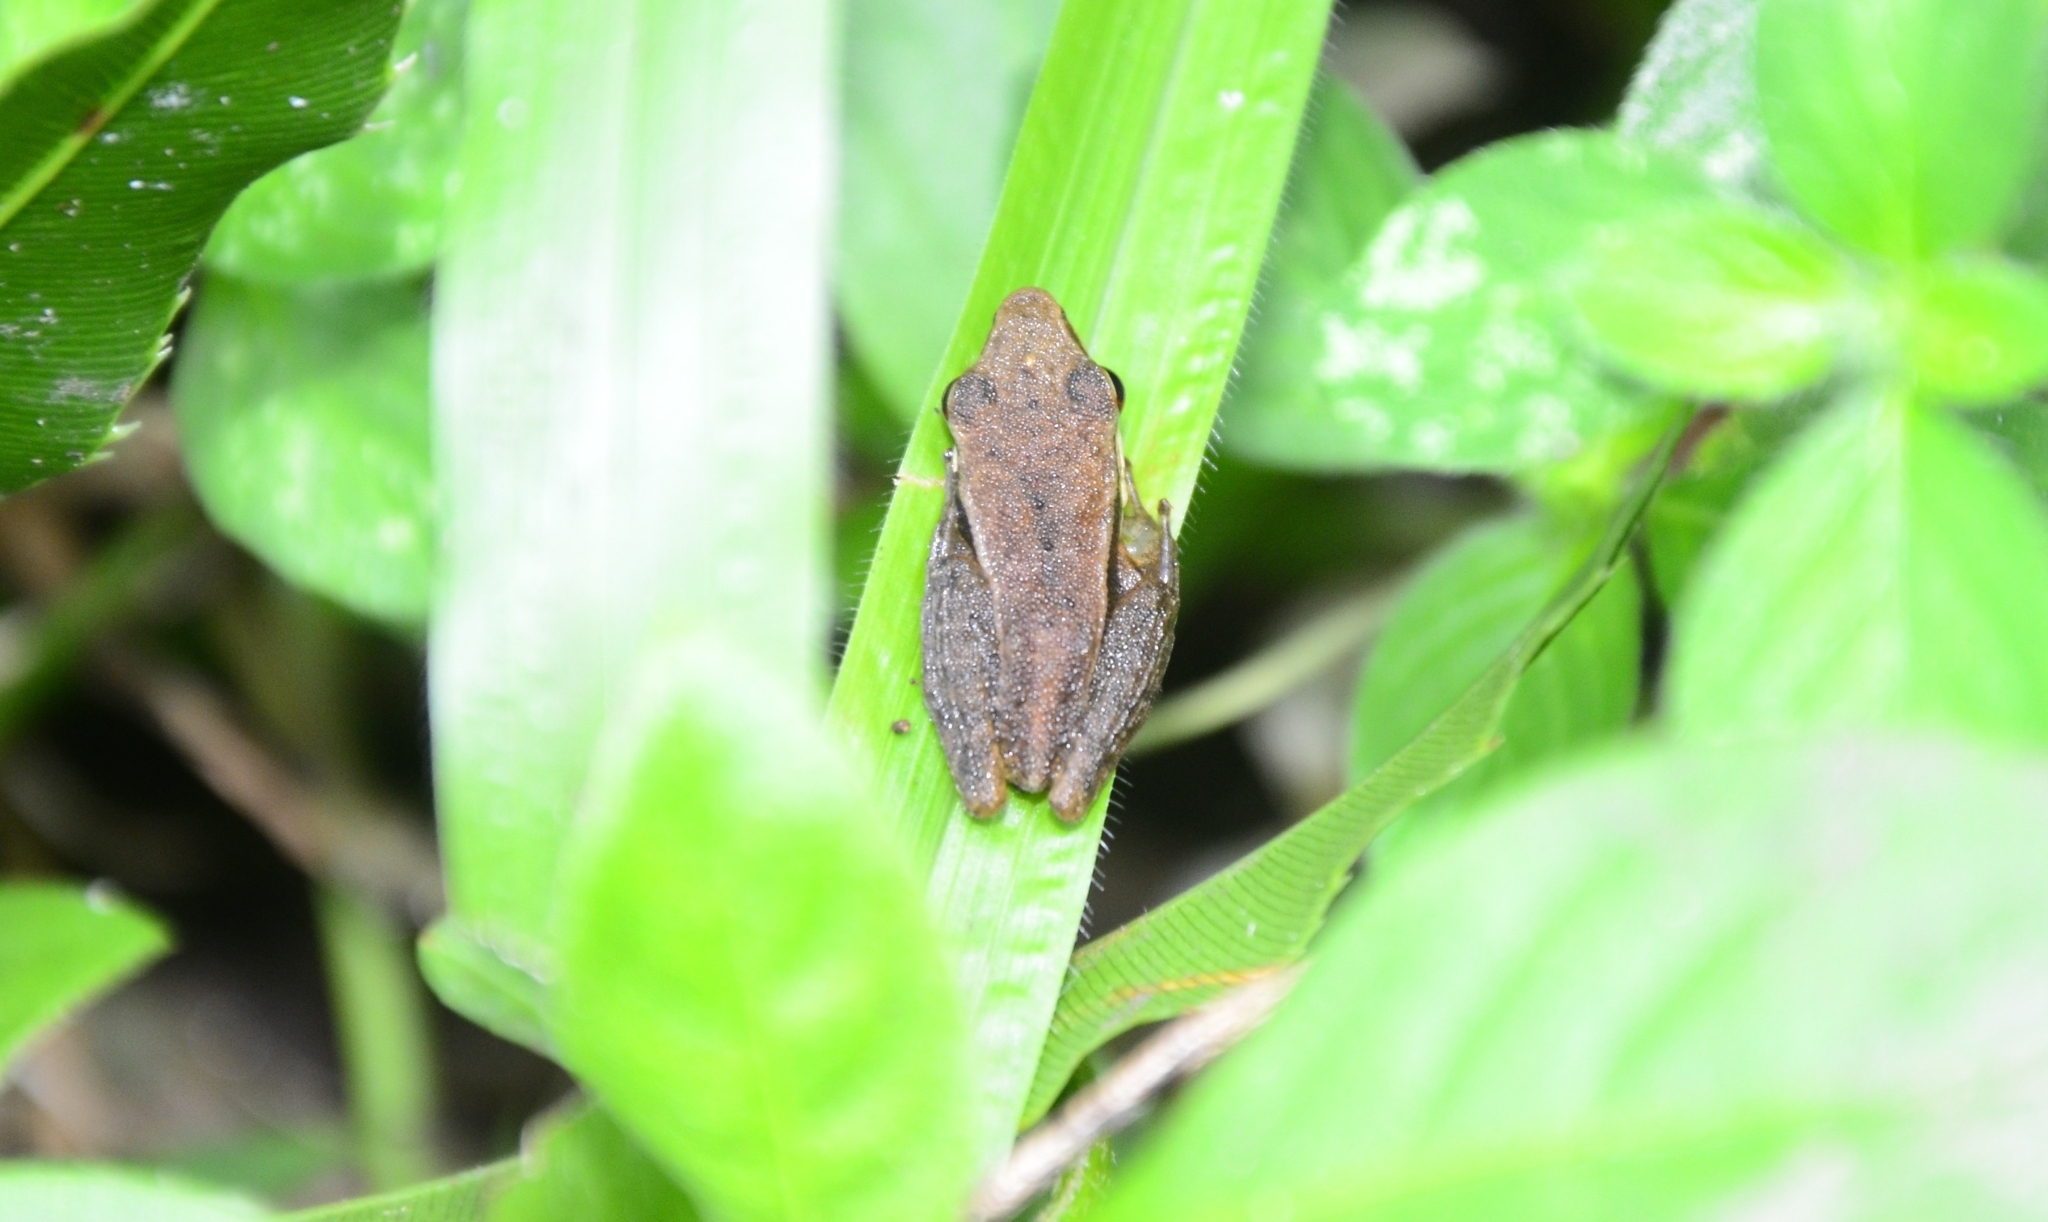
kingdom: Animalia
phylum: Chordata
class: Amphibia
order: Anura
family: Ranidae
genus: Indosylvirana
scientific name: Indosylvirana urbis
